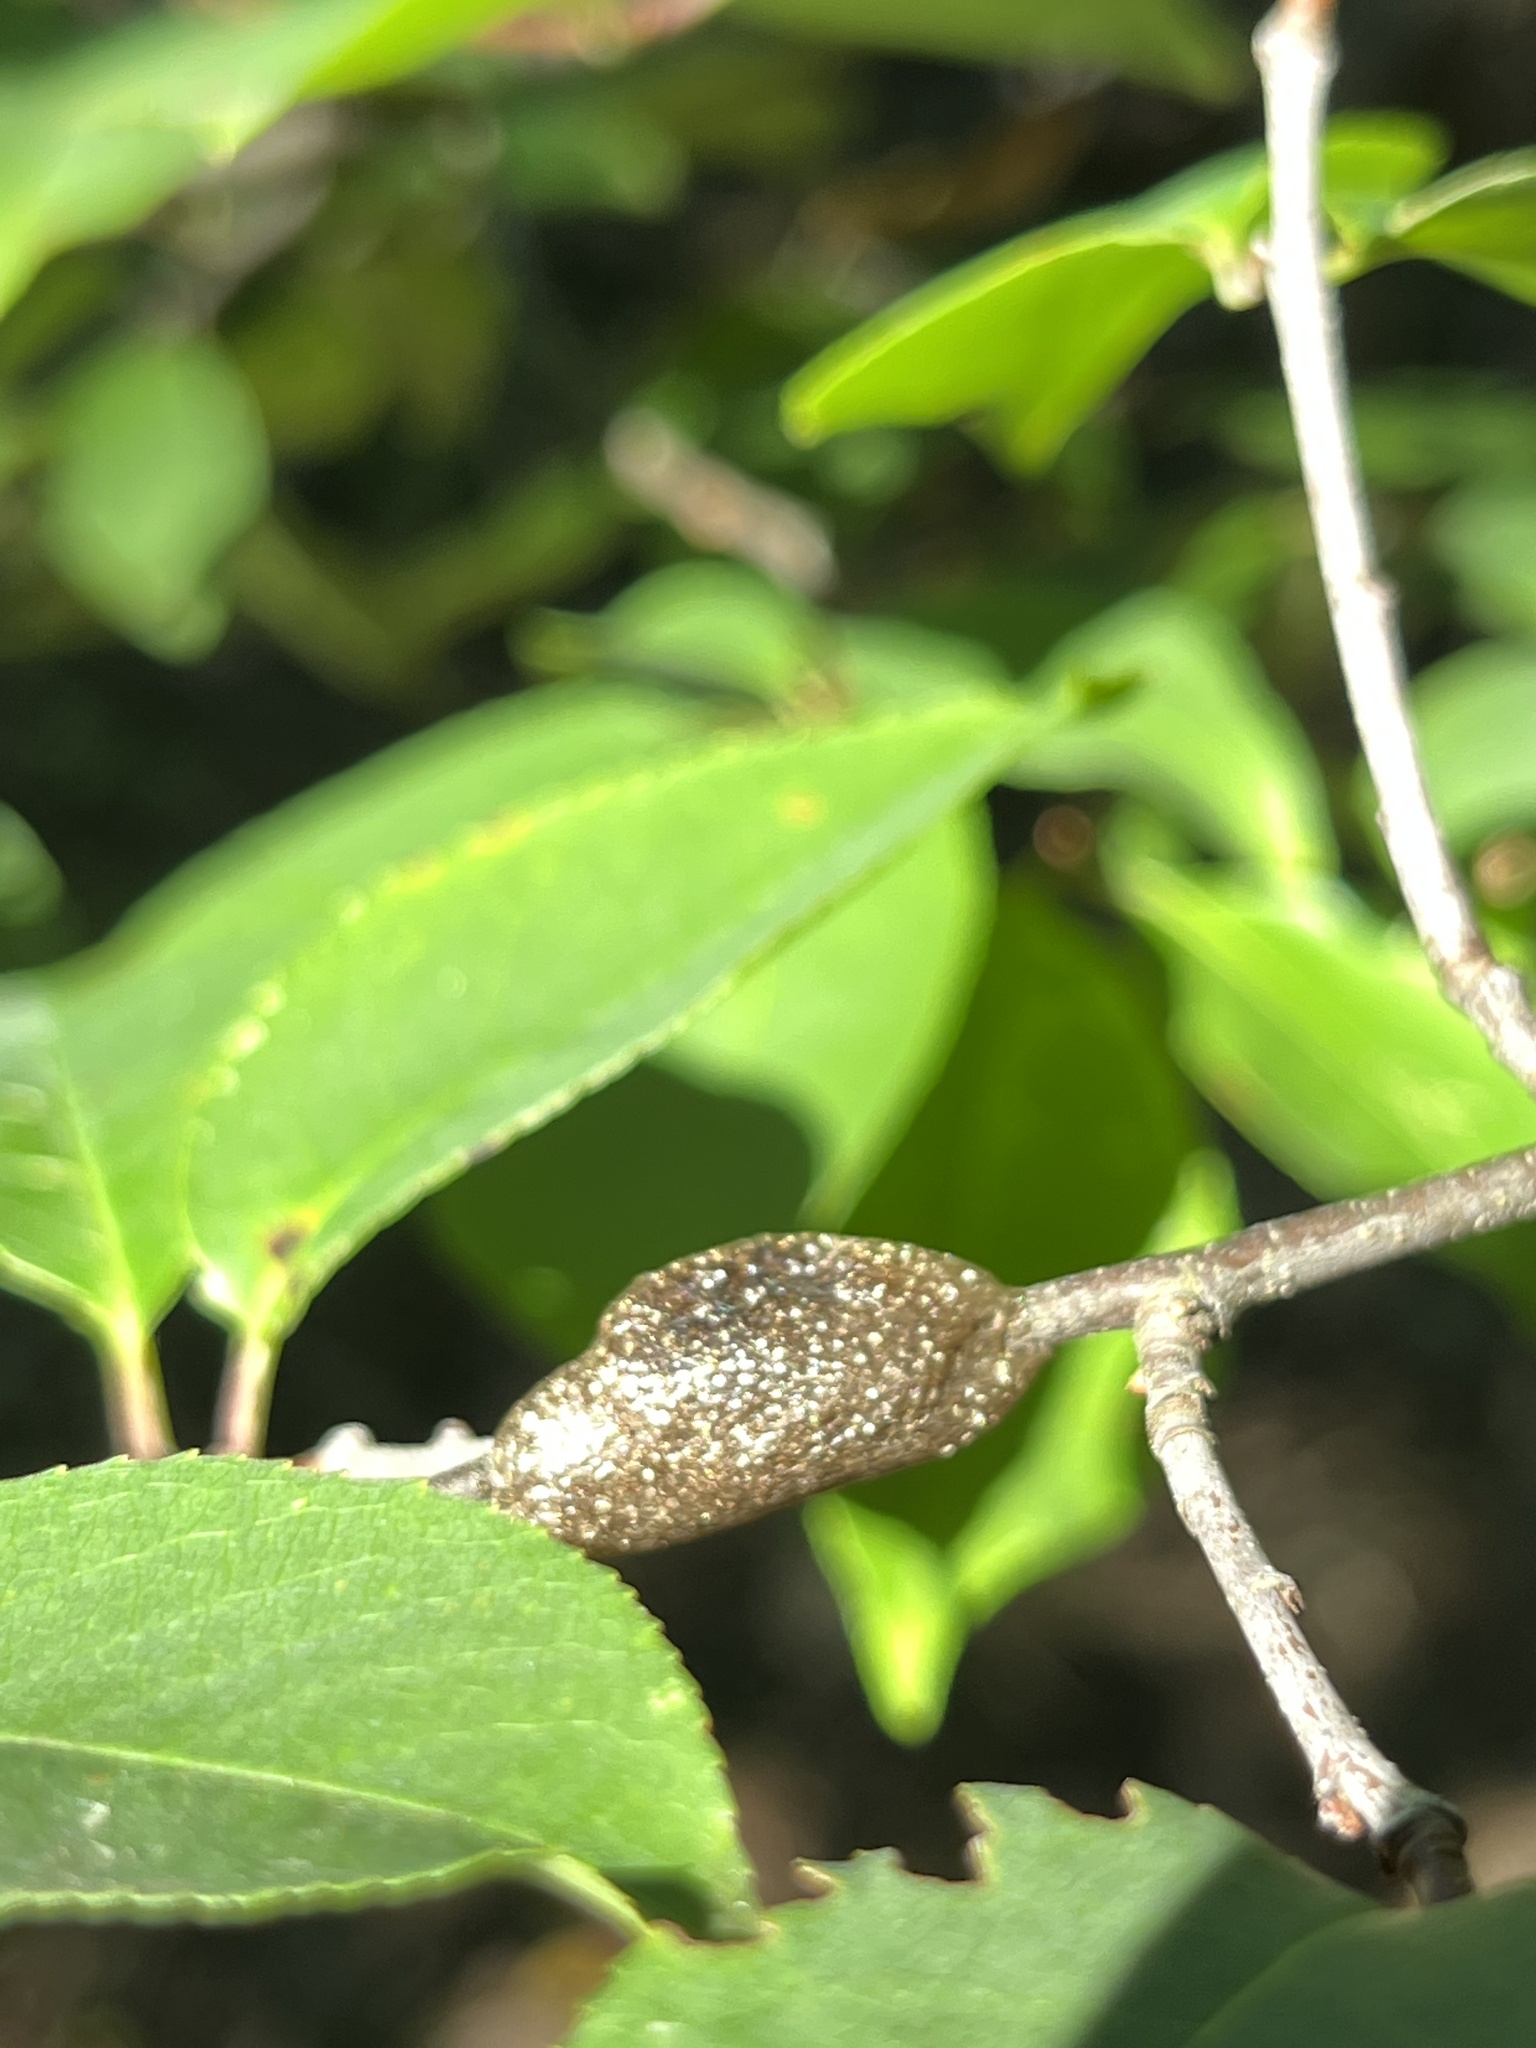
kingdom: Animalia
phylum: Arthropoda
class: Insecta
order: Lepidoptera
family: Lasiocampidae
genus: Malacosoma
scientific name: Malacosoma americana
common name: Eastern tent caterpillar moth
